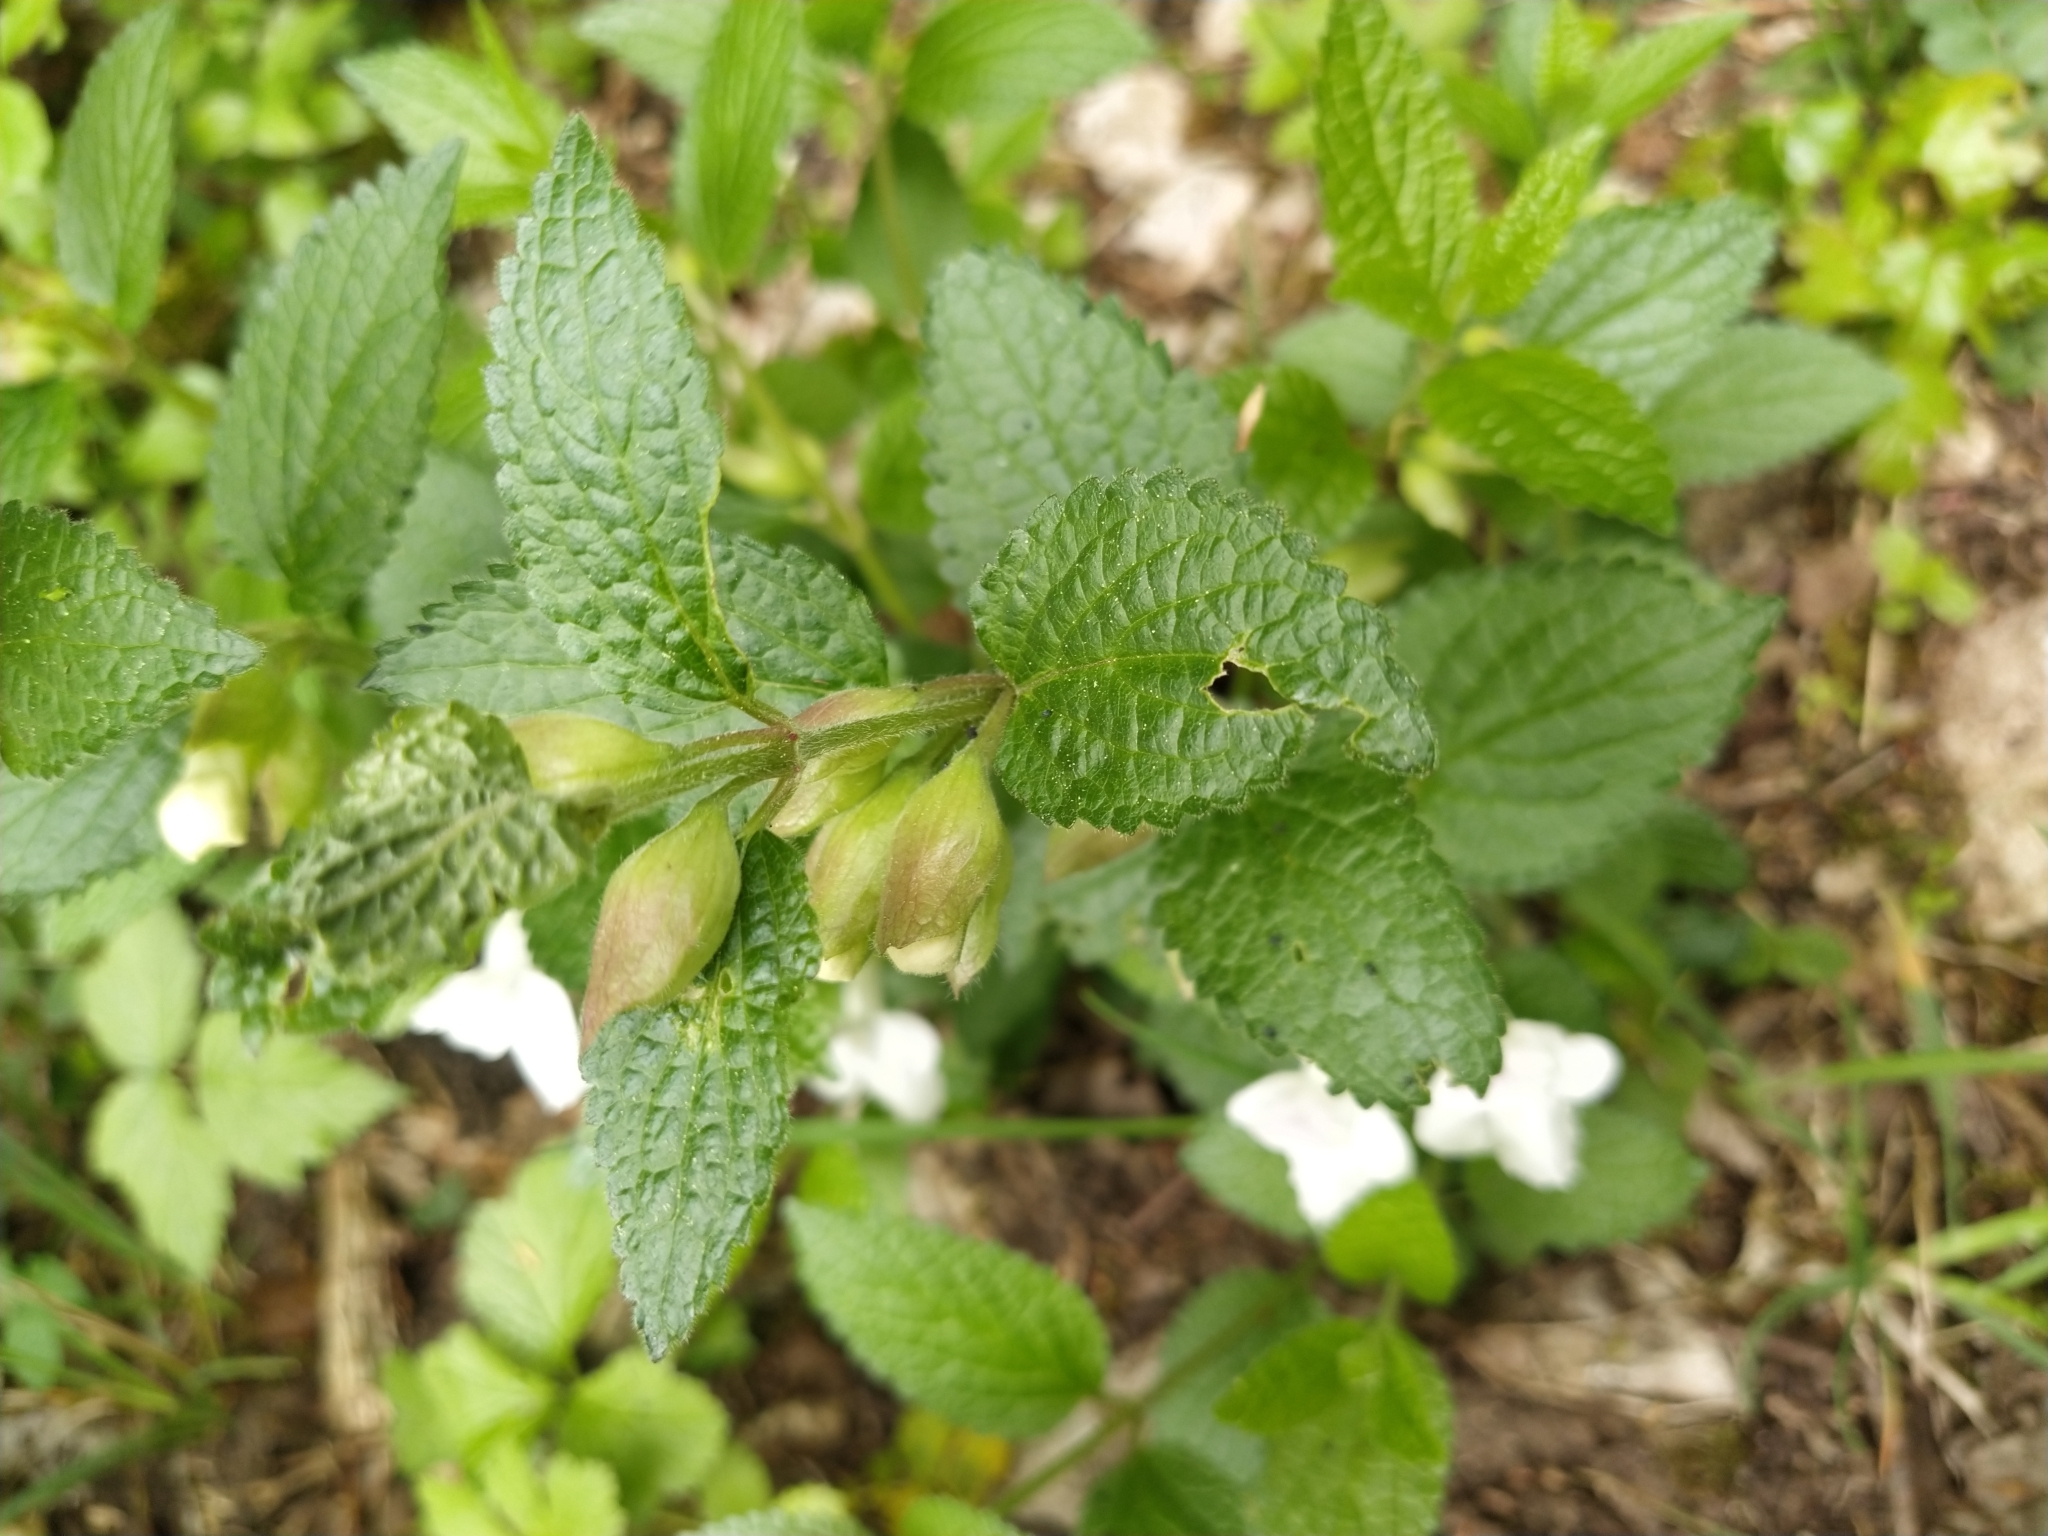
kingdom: Plantae
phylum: Tracheophyta
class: Magnoliopsida
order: Lamiales
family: Lamiaceae
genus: Melittis
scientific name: Melittis melissophyllum
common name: Bastard balm
